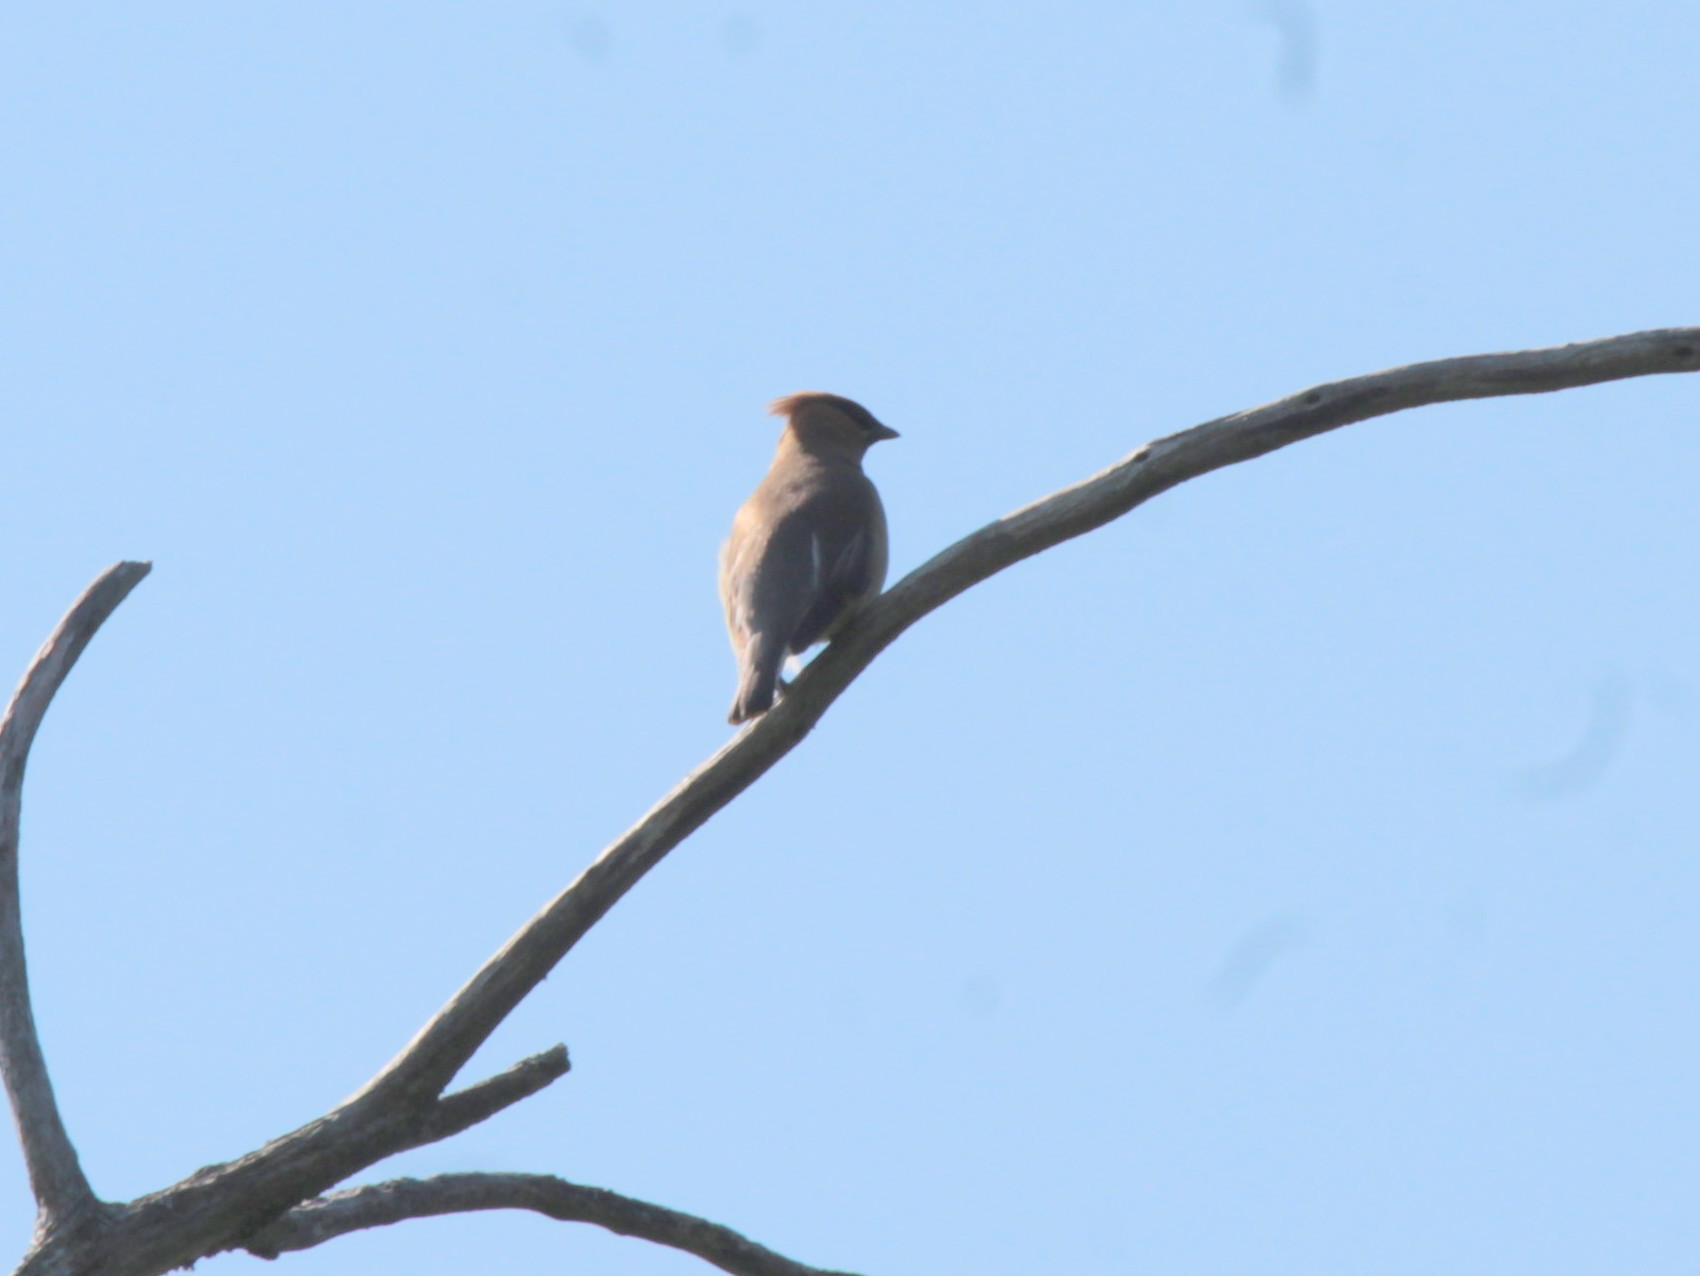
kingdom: Animalia
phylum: Chordata
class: Aves
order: Passeriformes
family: Bombycillidae
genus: Bombycilla
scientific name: Bombycilla cedrorum
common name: Cedar waxwing
